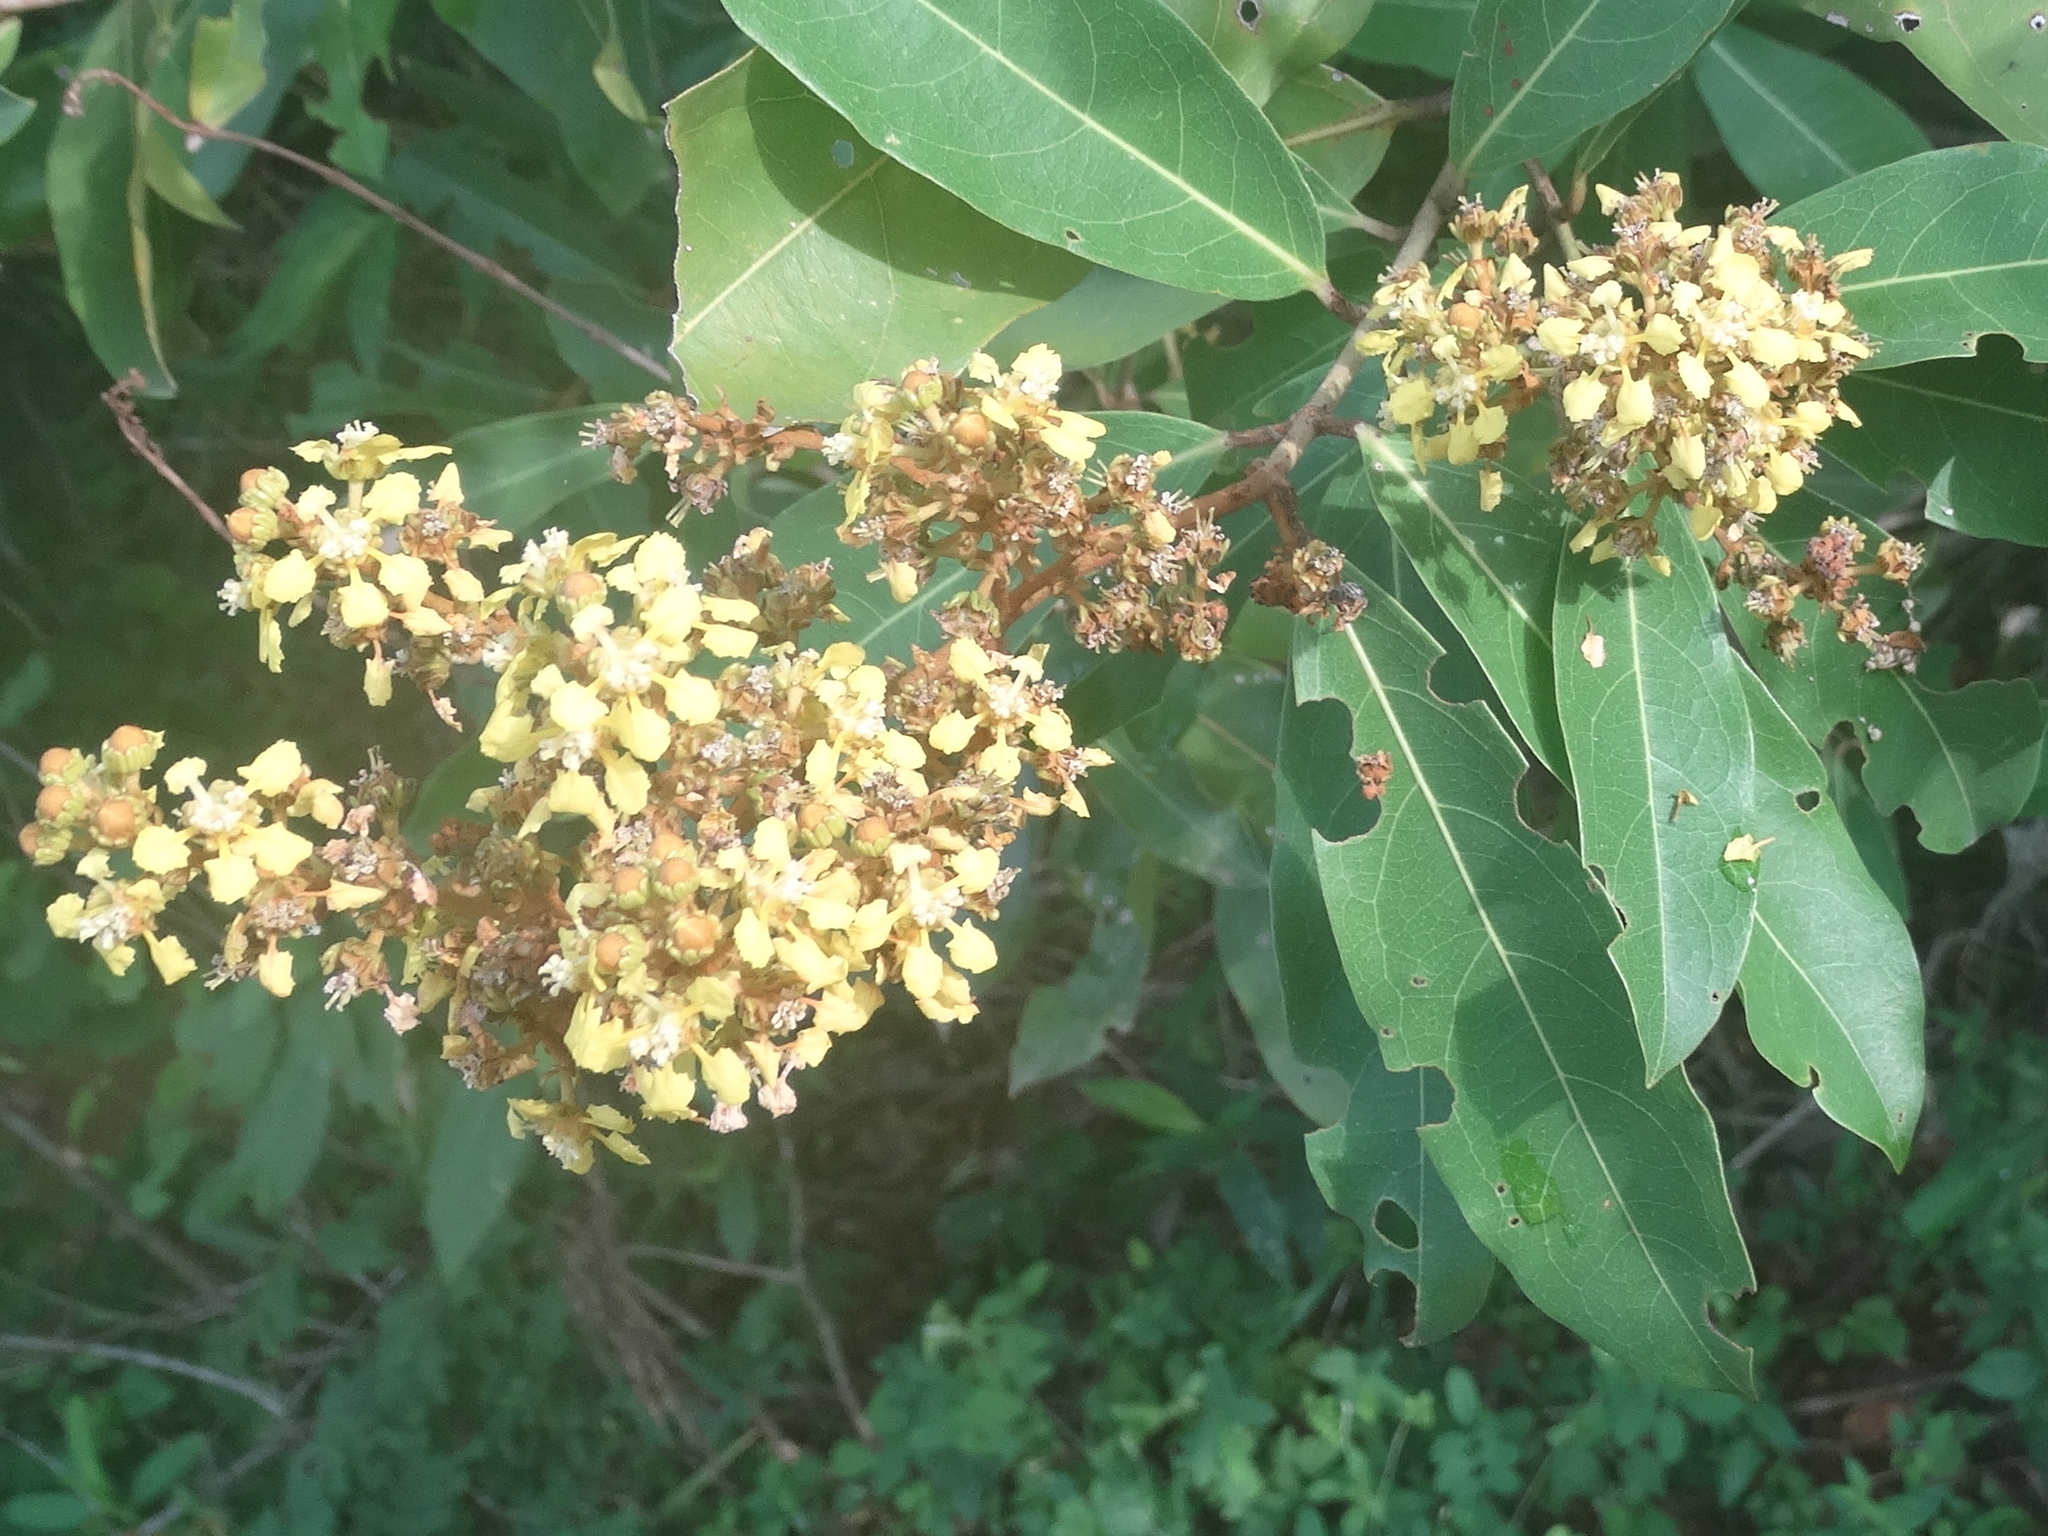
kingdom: Plantae
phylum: Tracheophyta
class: Magnoliopsida
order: Malpighiales
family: Malpighiaceae
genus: Byrsonima
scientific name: Byrsonima crassifolia
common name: Golden spoon
